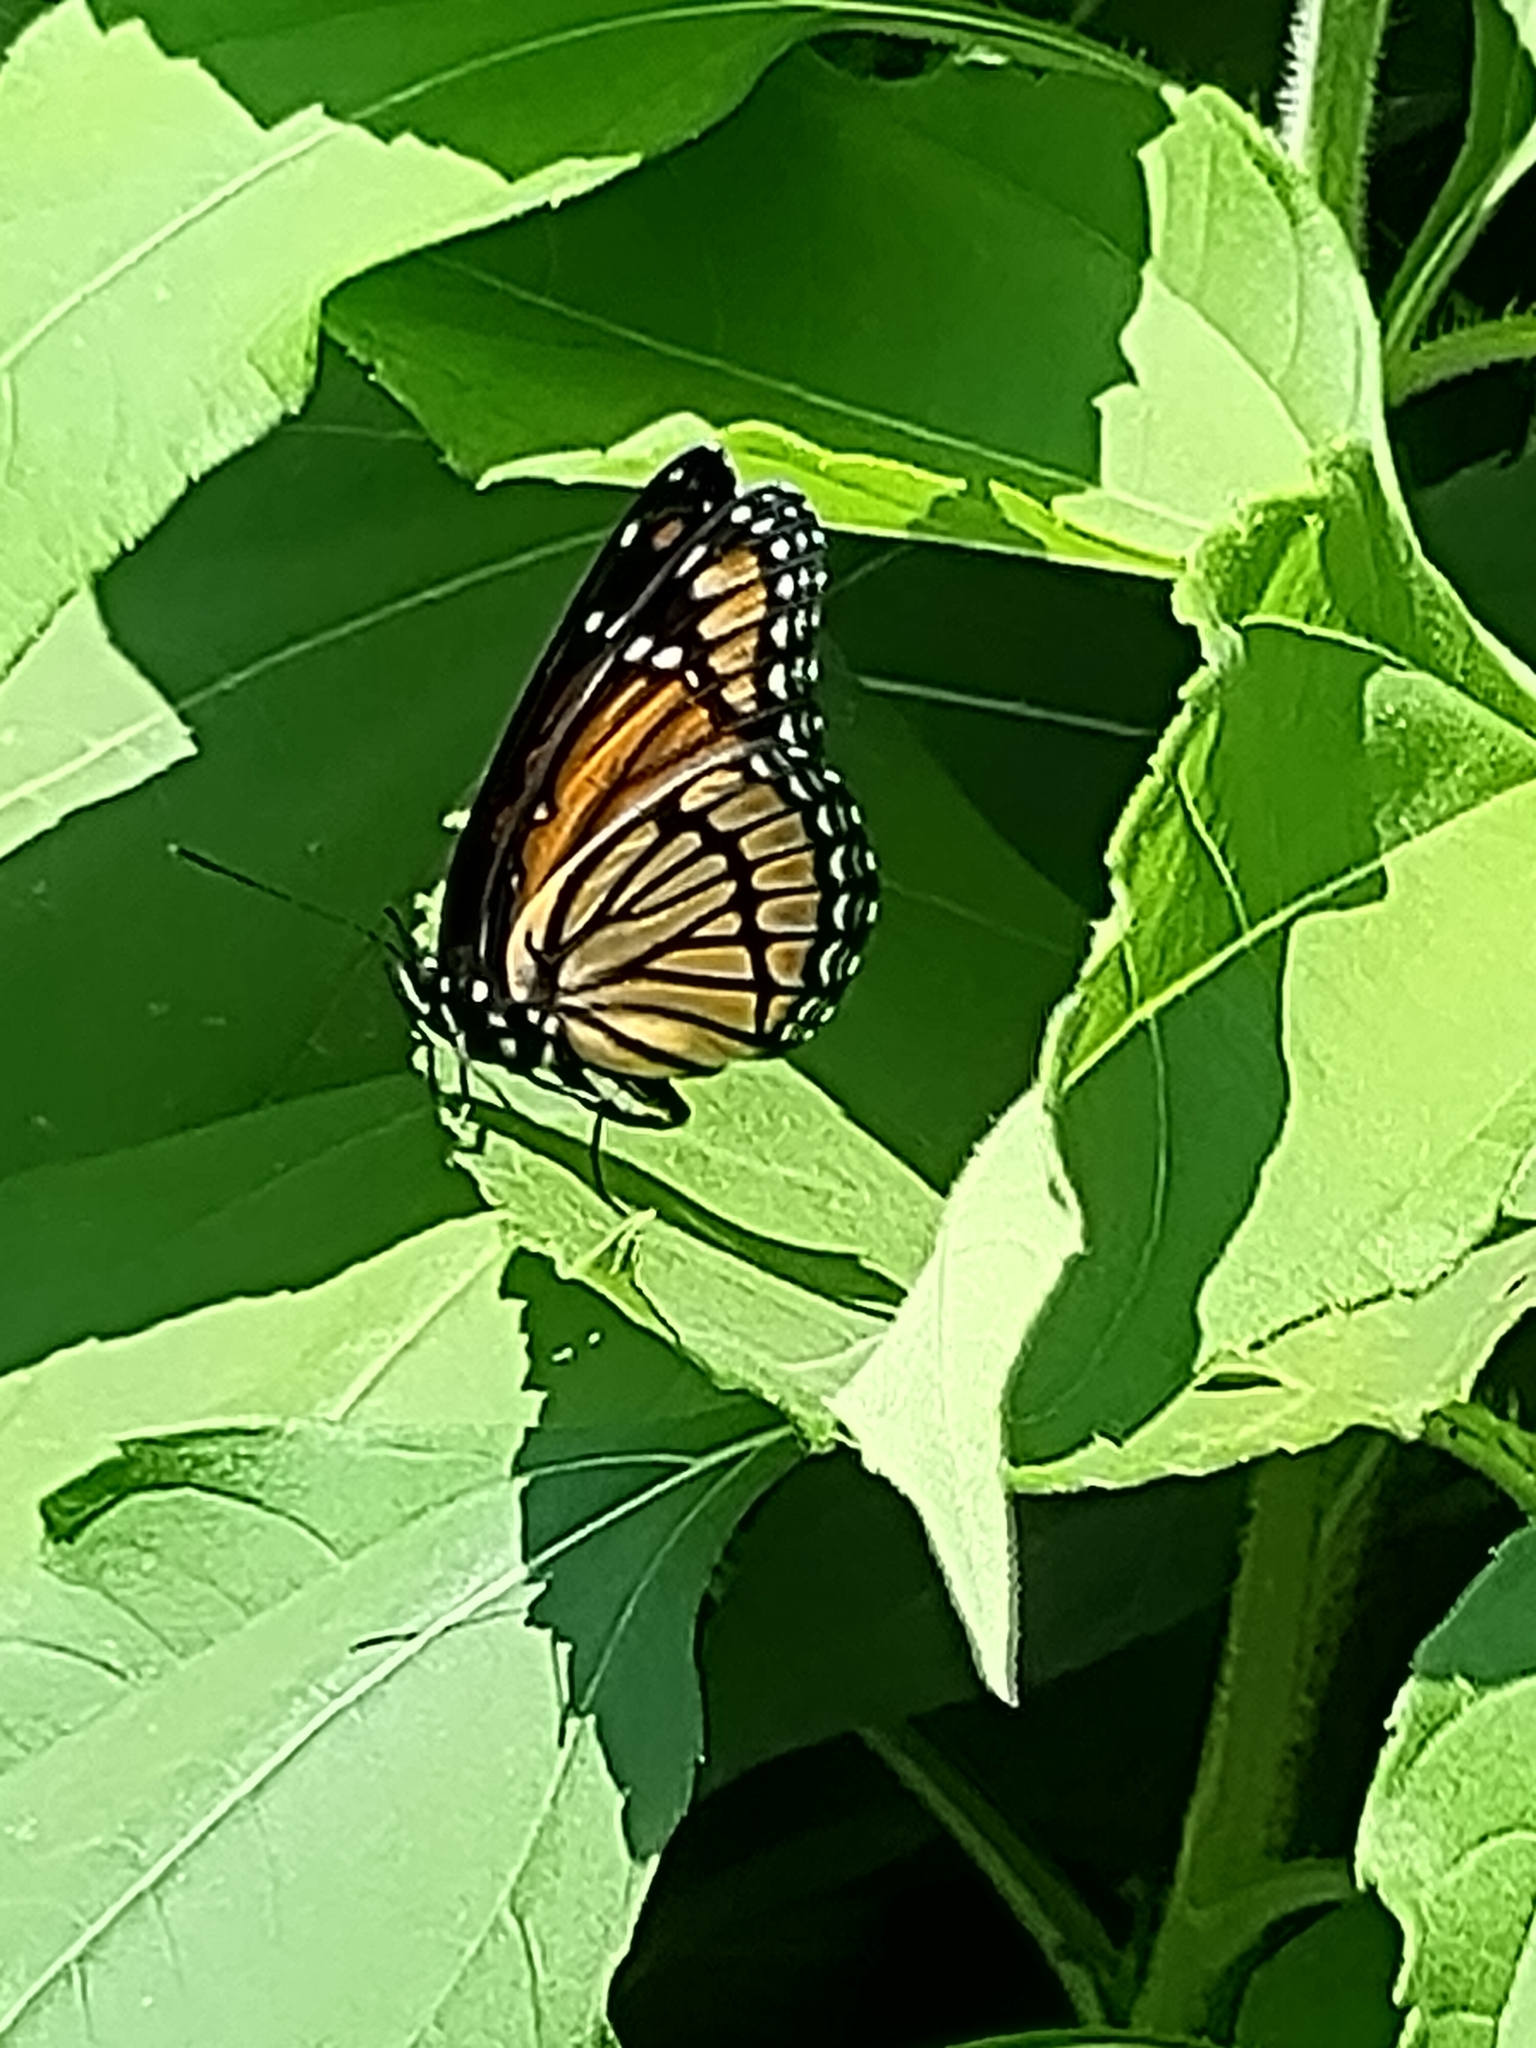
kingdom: Animalia
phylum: Arthropoda
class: Insecta
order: Lepidoptera
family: Nymphalidae
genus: Limenitis
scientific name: Limenitis archippus
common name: Viceroy
